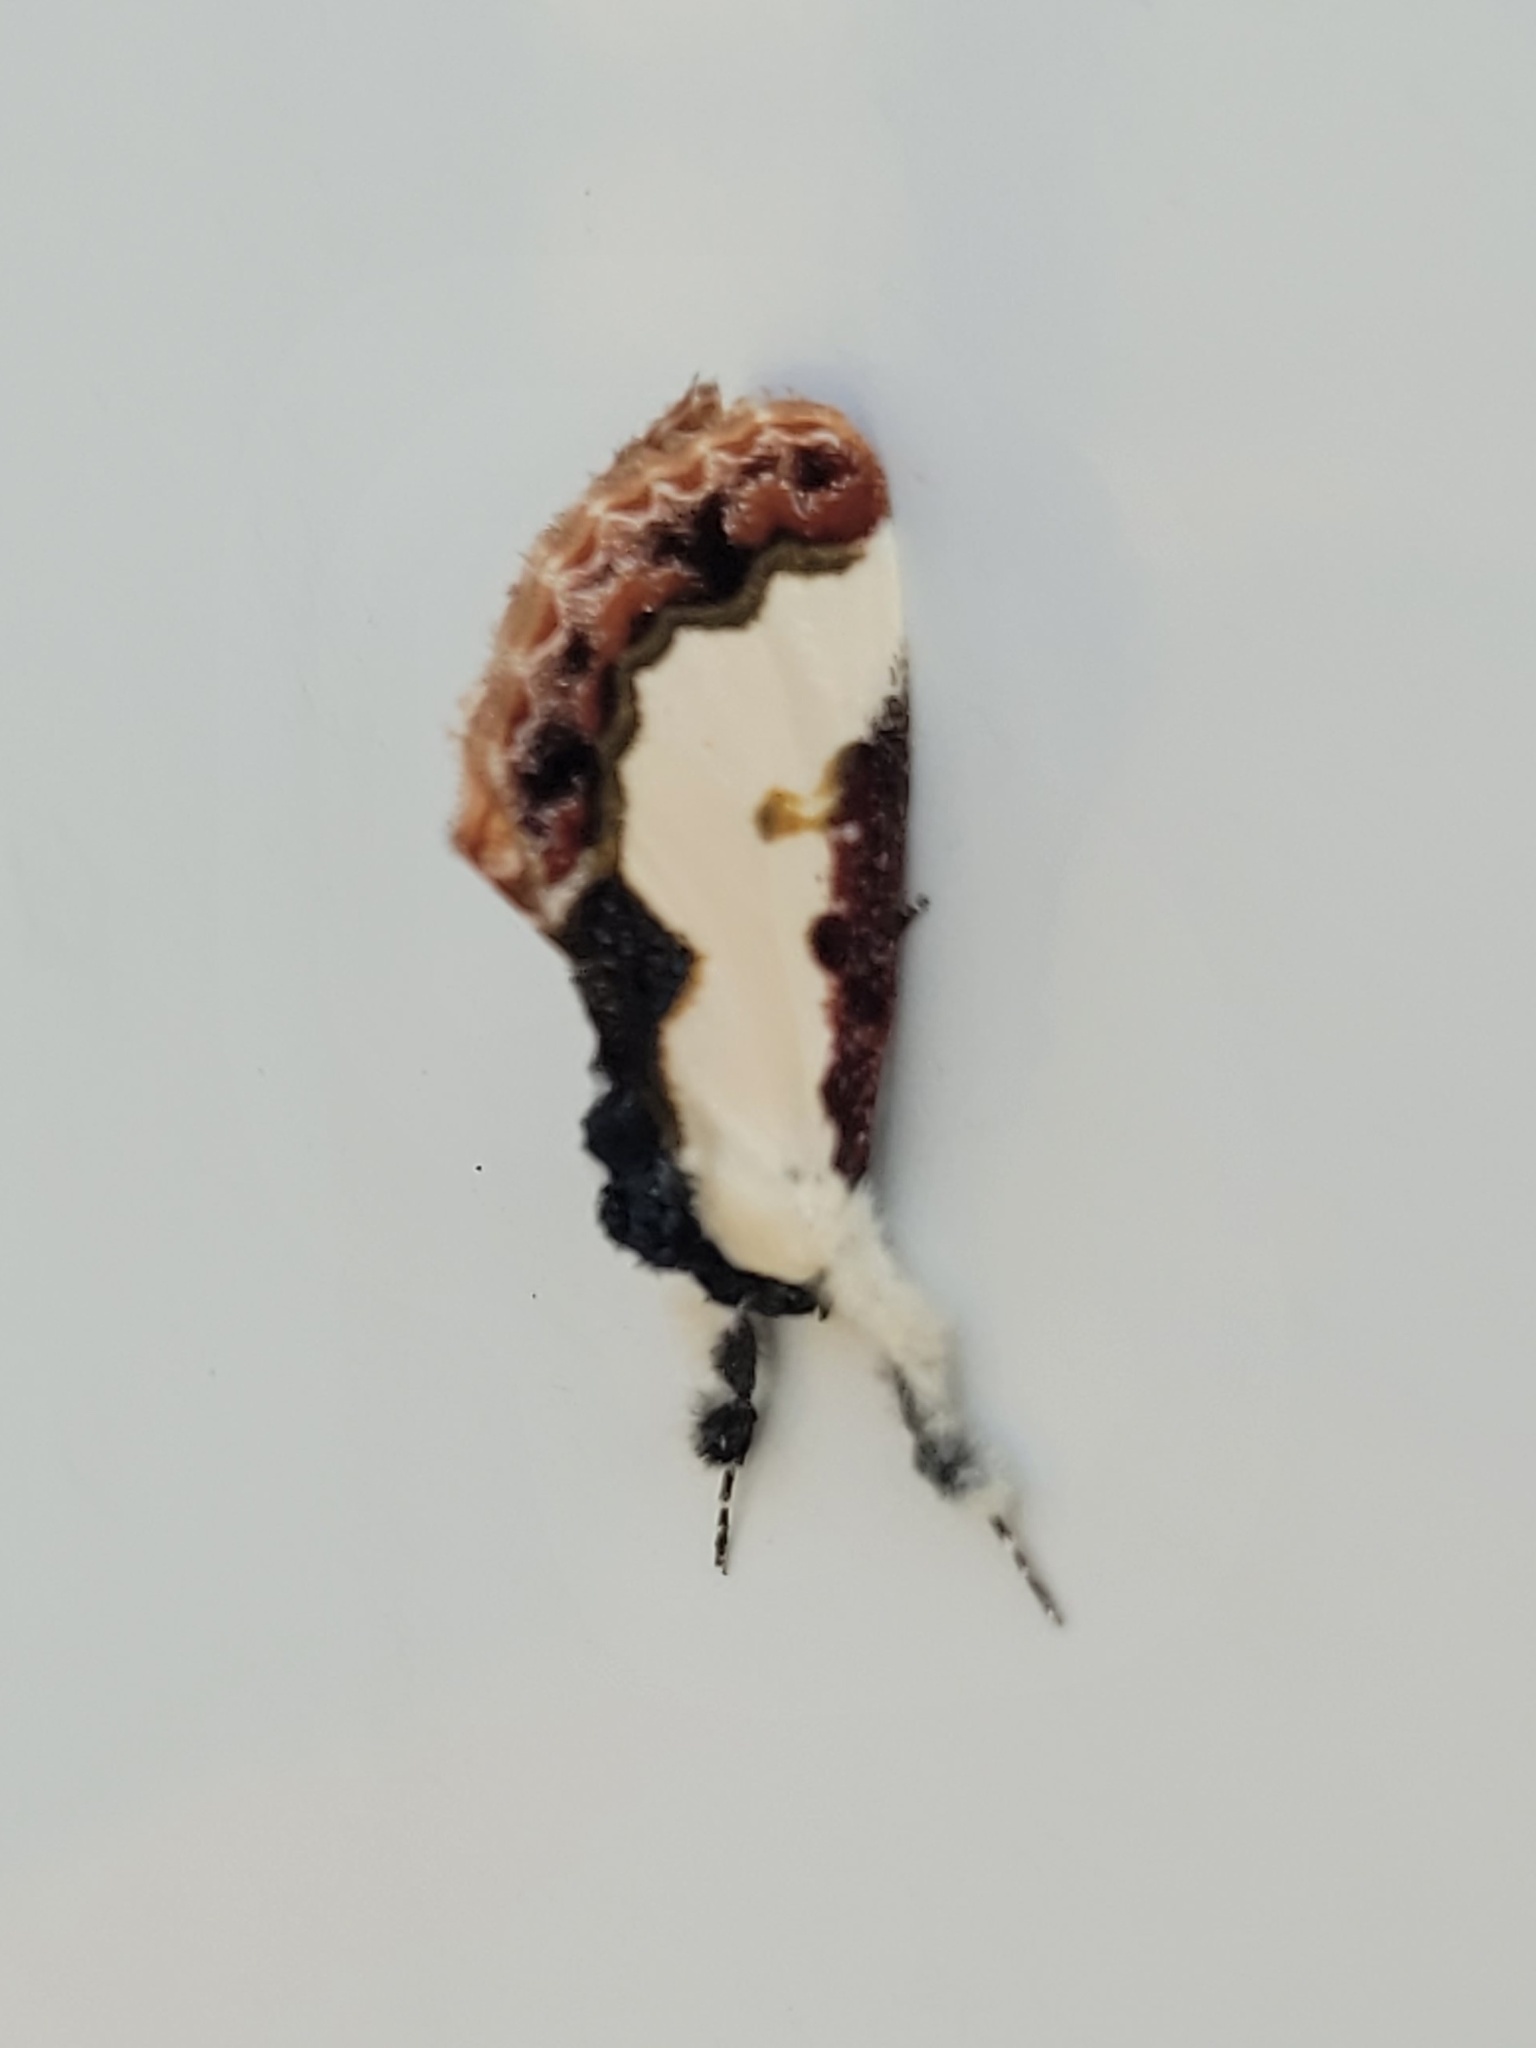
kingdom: Animalia
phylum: Arthropoda
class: Insecta
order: Lepidoptera
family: Noctuidae
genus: Eudryas
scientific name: Eudryas unio
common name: Pearly wood-nymph
